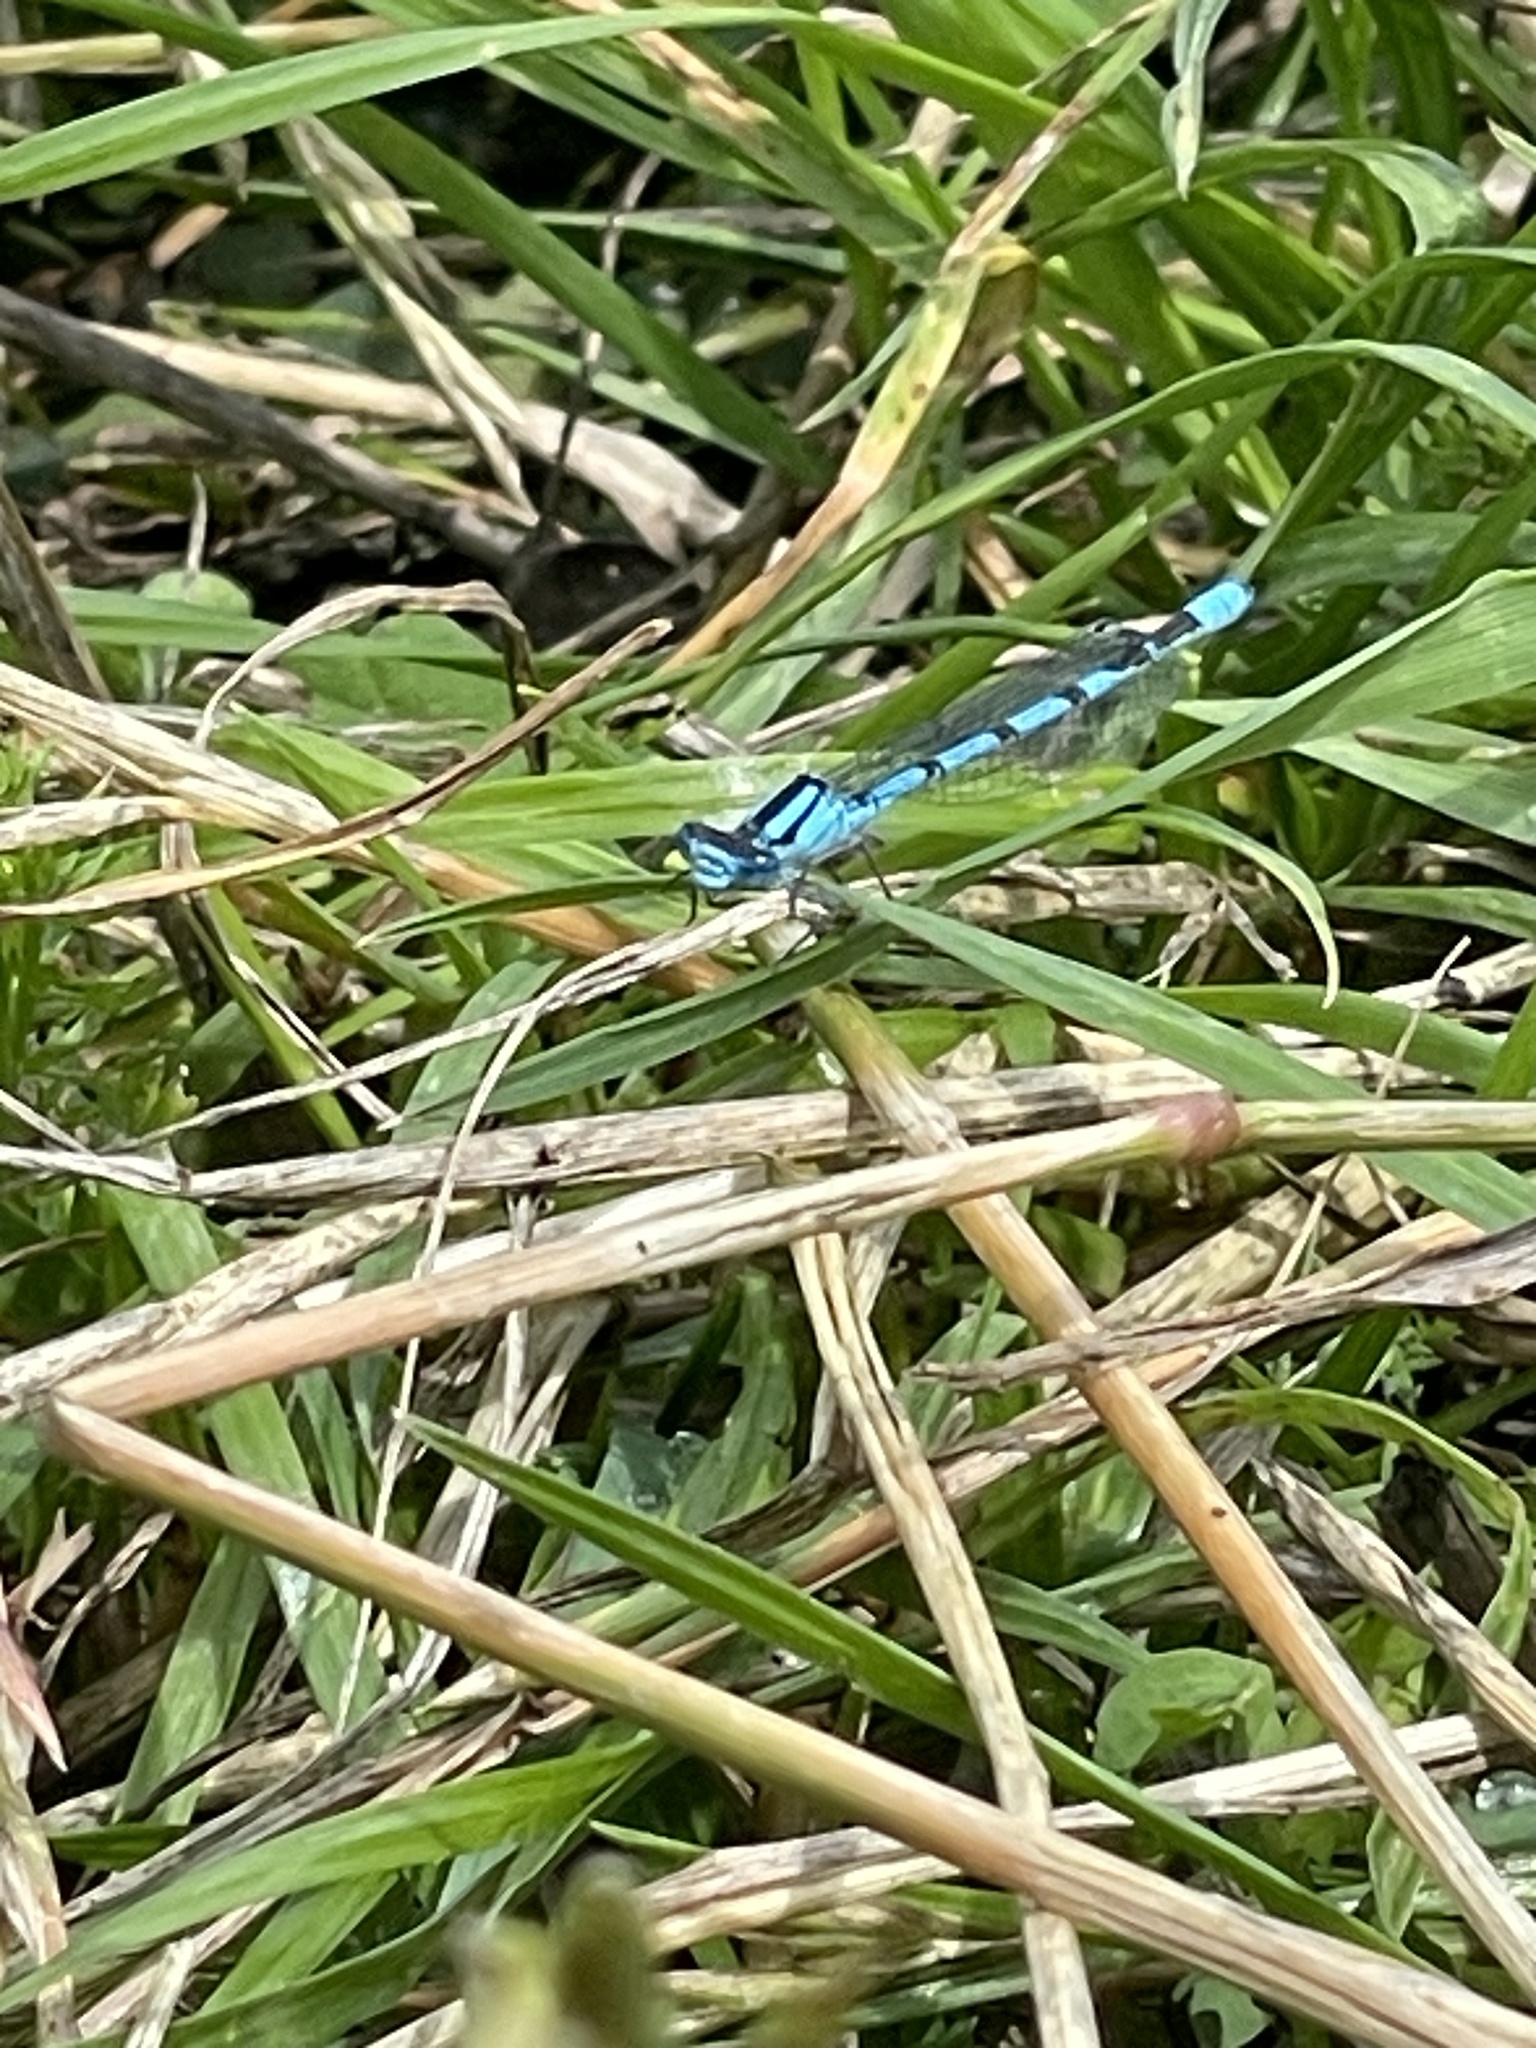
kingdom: Animalia
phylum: Arthropoda
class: Insecta
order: Odonata
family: Coenagrionidae
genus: Enallagma
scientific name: Enallagma cyathigerum
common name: Common blue damselfly
